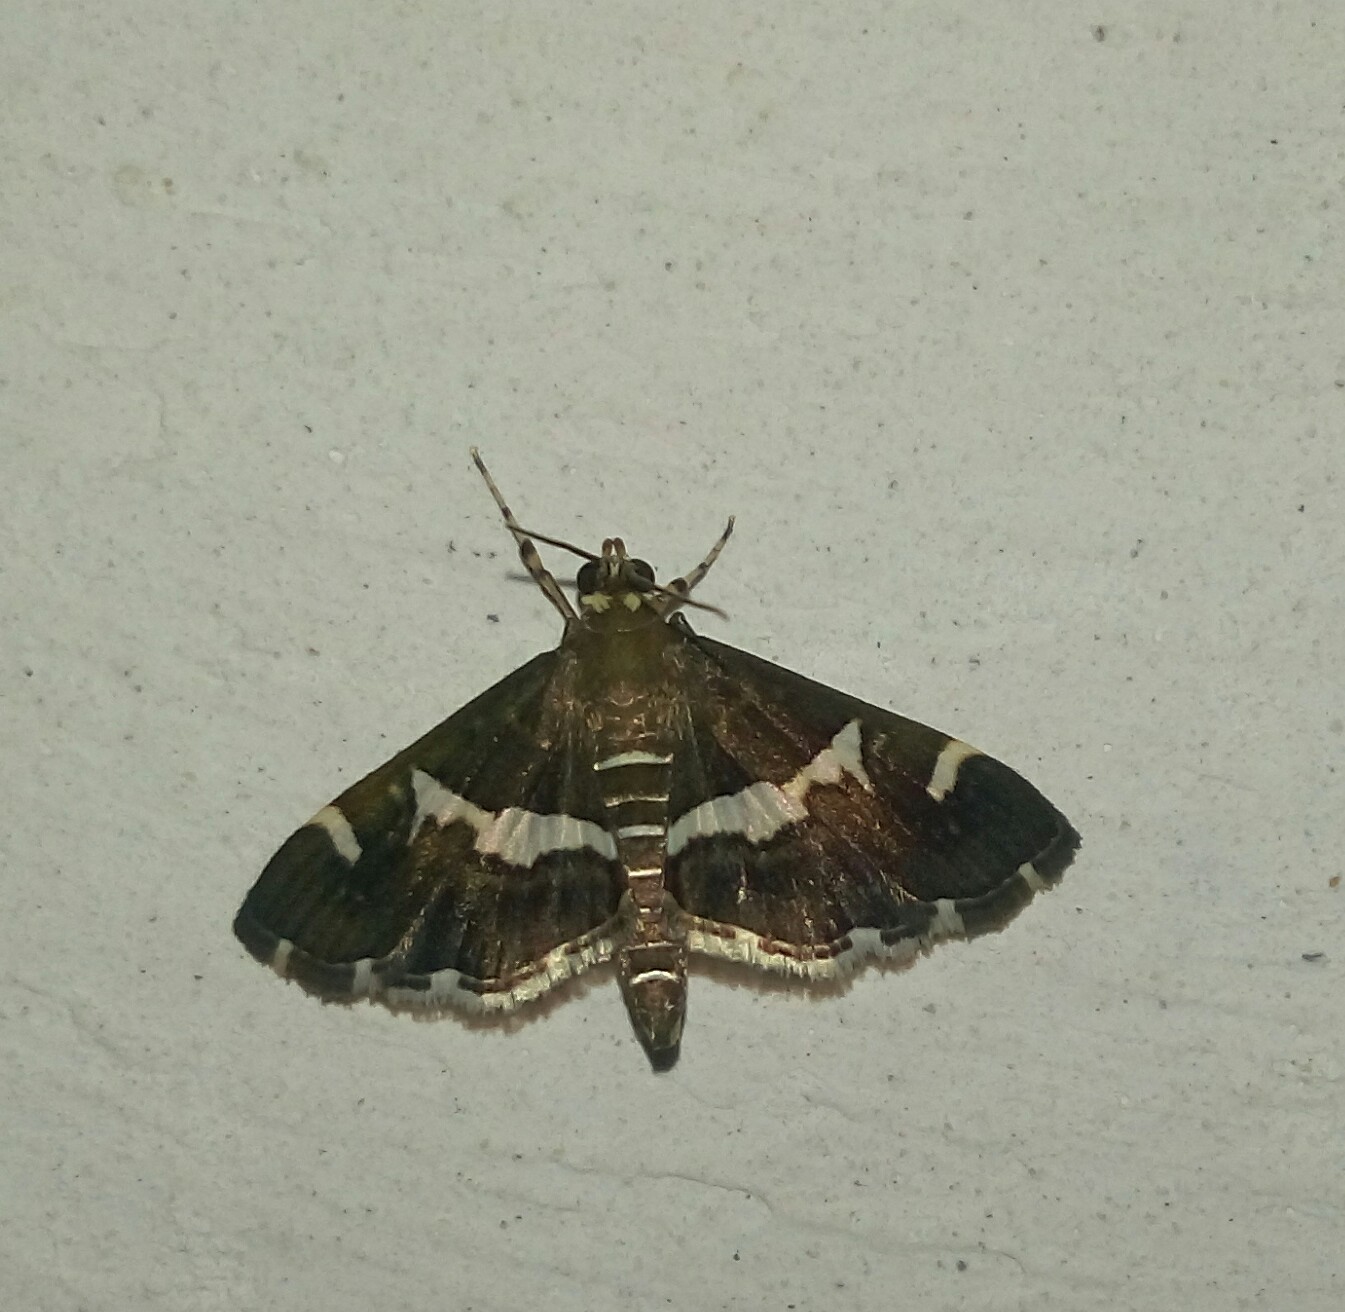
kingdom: Animalia
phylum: Arthropoda
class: Insecta
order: Lepidoptera
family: Crambidae
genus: Spoladea
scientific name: Spoladea recurvalis
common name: Beet webworm moth
